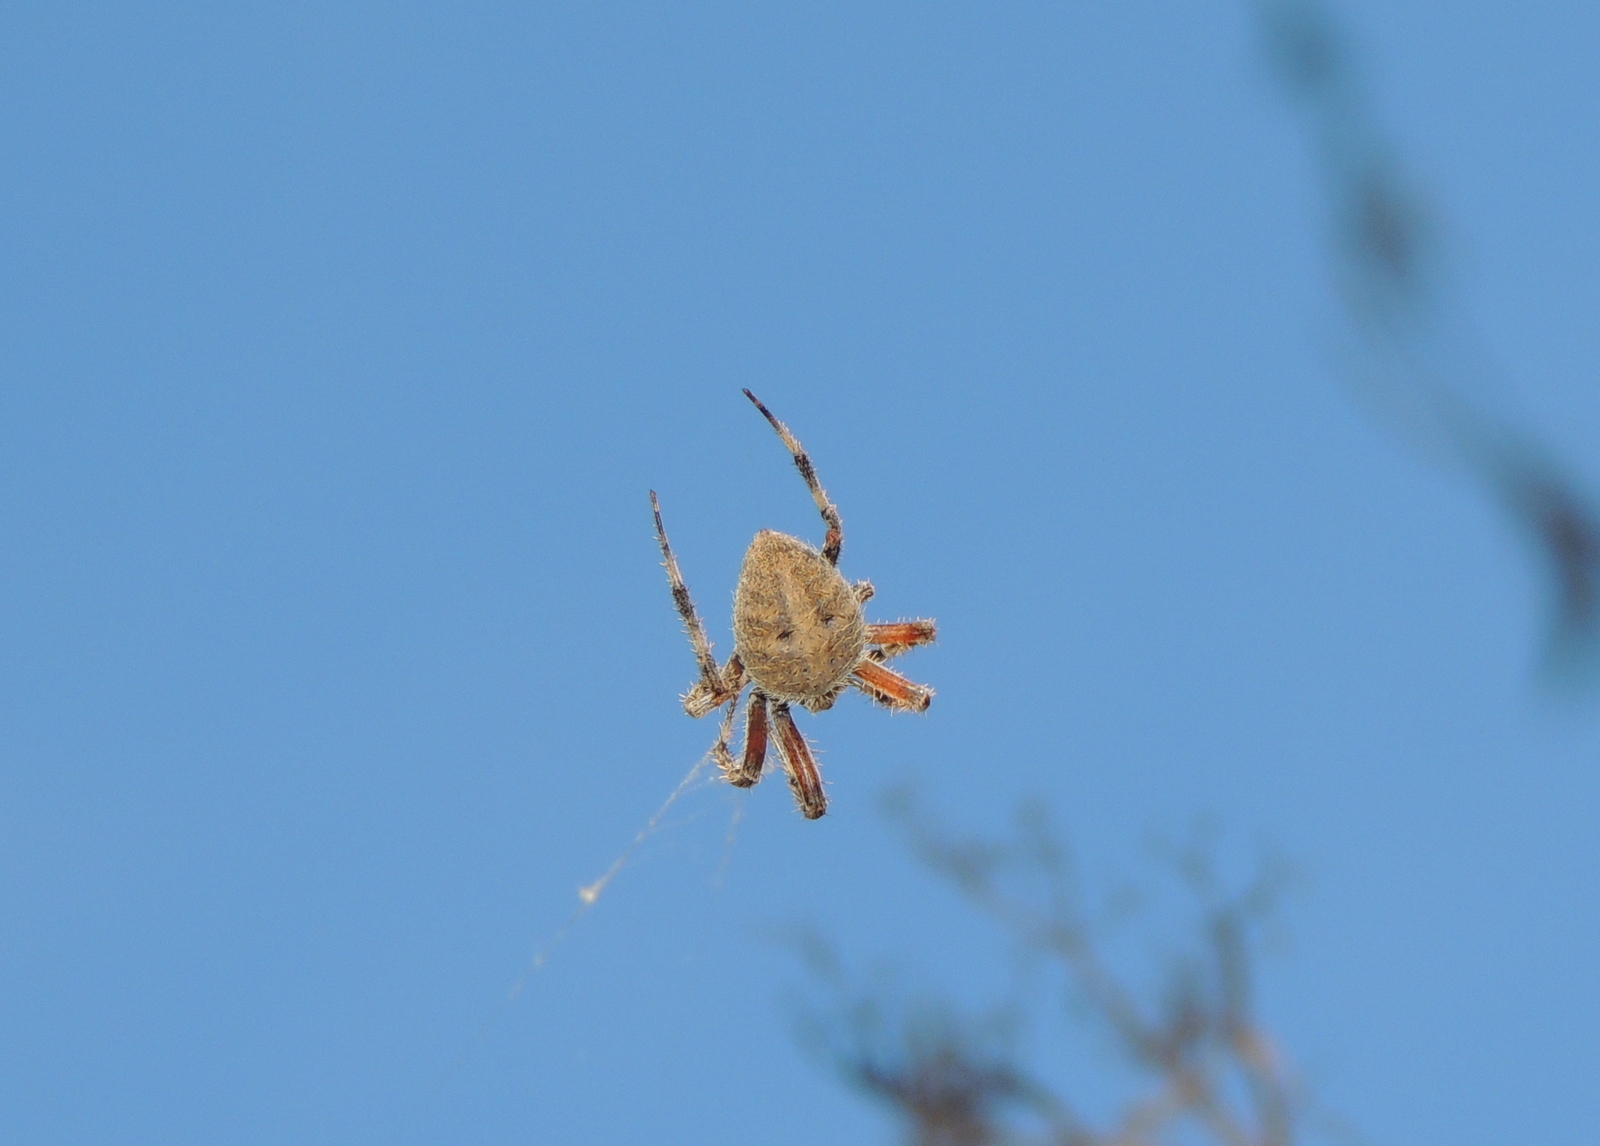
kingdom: Animalia
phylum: Arthropoda
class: Arachnida
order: Araneae
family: Araneidae
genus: Neoscona
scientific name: Neoscona crucifera
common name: Spotted orbweaver
